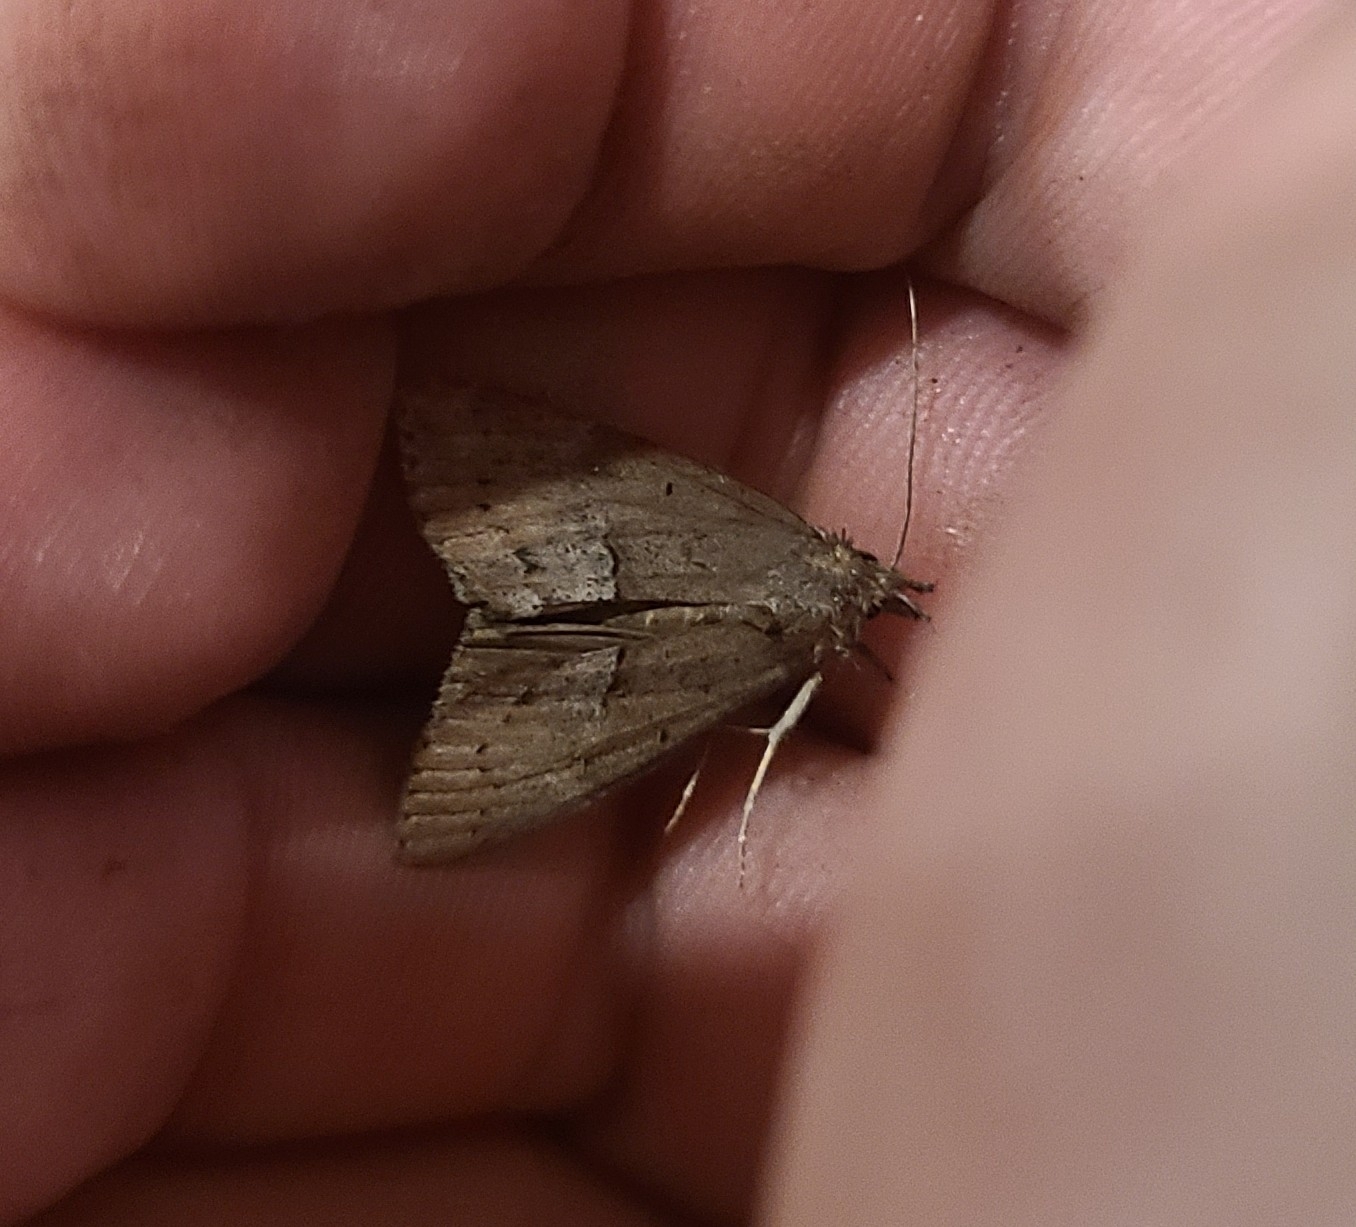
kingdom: Animalia
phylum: Arthropoda
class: Insecta
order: Lepidoptera
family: Erebidae
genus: Hypena
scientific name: Hypena scabra
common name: Green cloverworm
